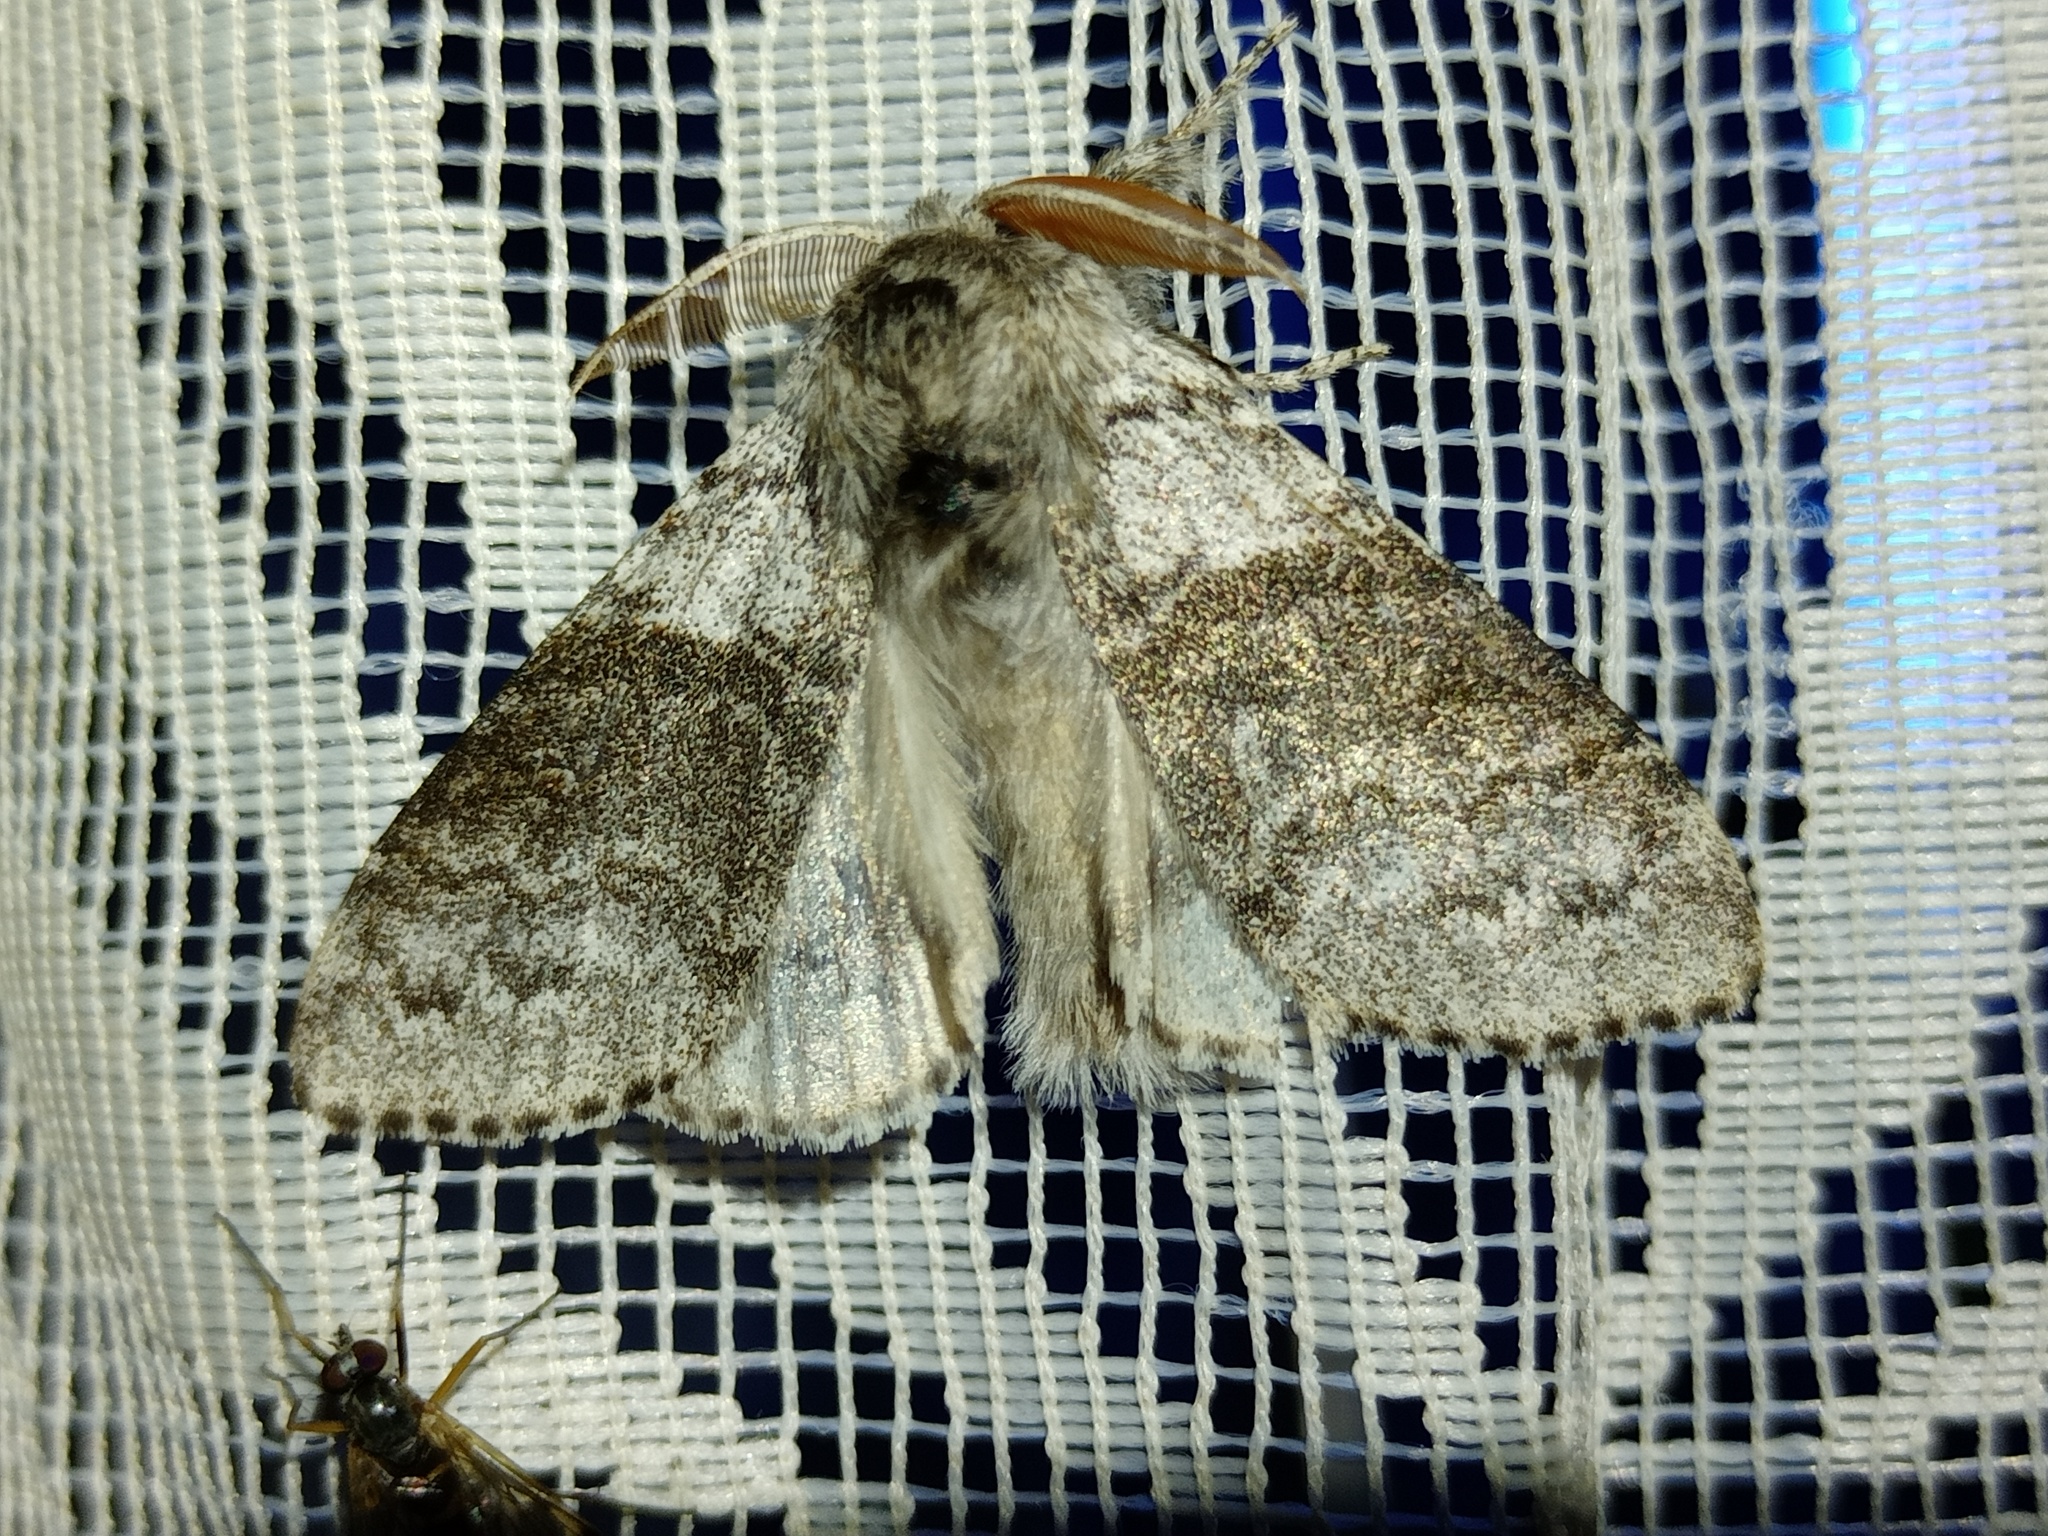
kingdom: Animalia
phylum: Arthropoda
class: Insecta
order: Lepidoptera
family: Erebidae
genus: Calliteara
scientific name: Calliteara pudibunda
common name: Pale tussock
